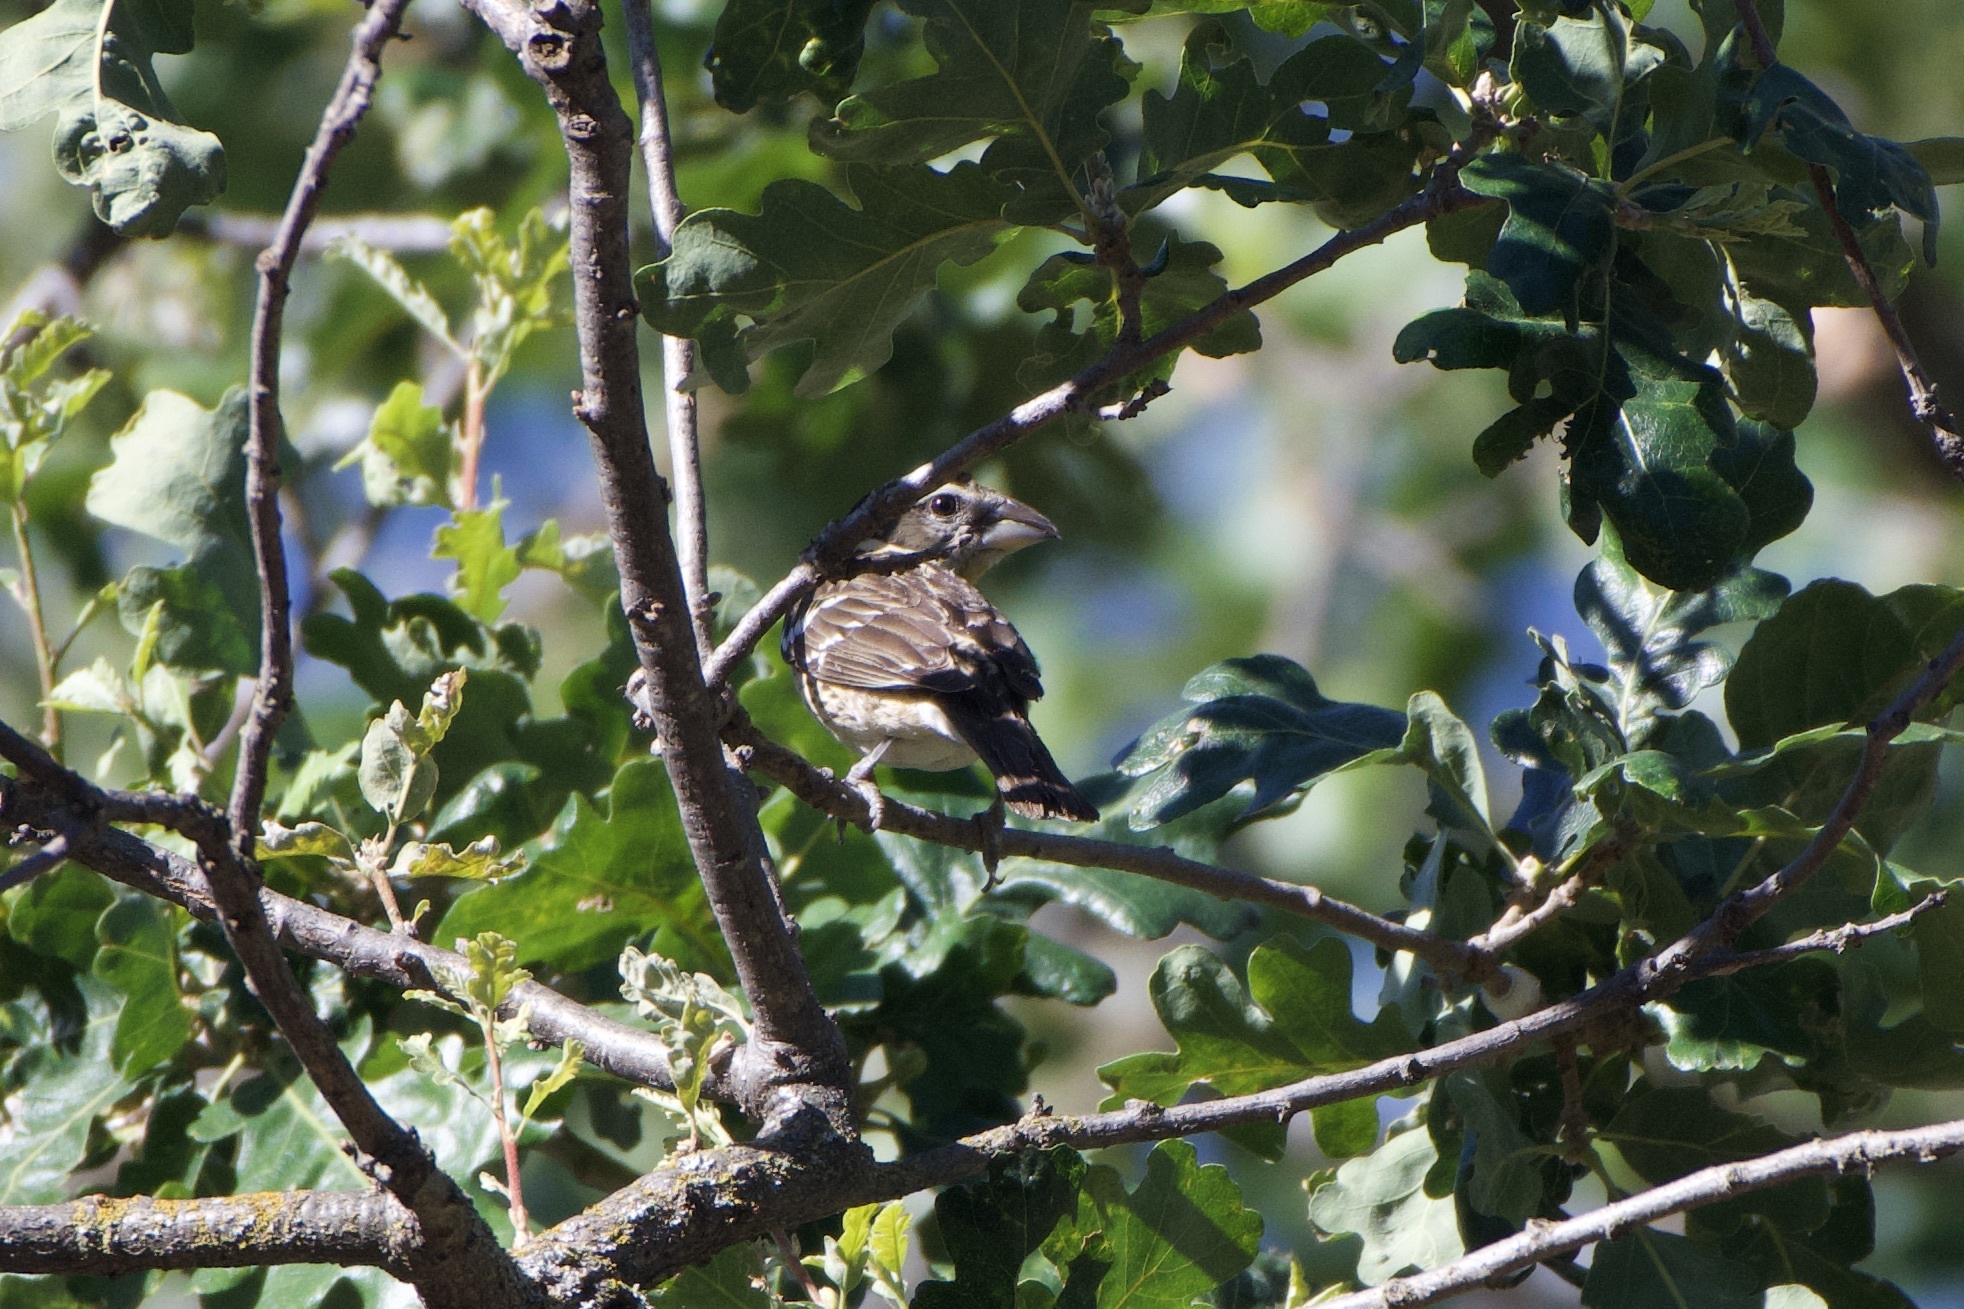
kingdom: Animalia
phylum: Chordata
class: Aves
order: Passeriformes
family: Cardinalidae
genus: Pheucticus
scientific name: Pheucticus melanocephalus
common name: Black-headed grosbeak
